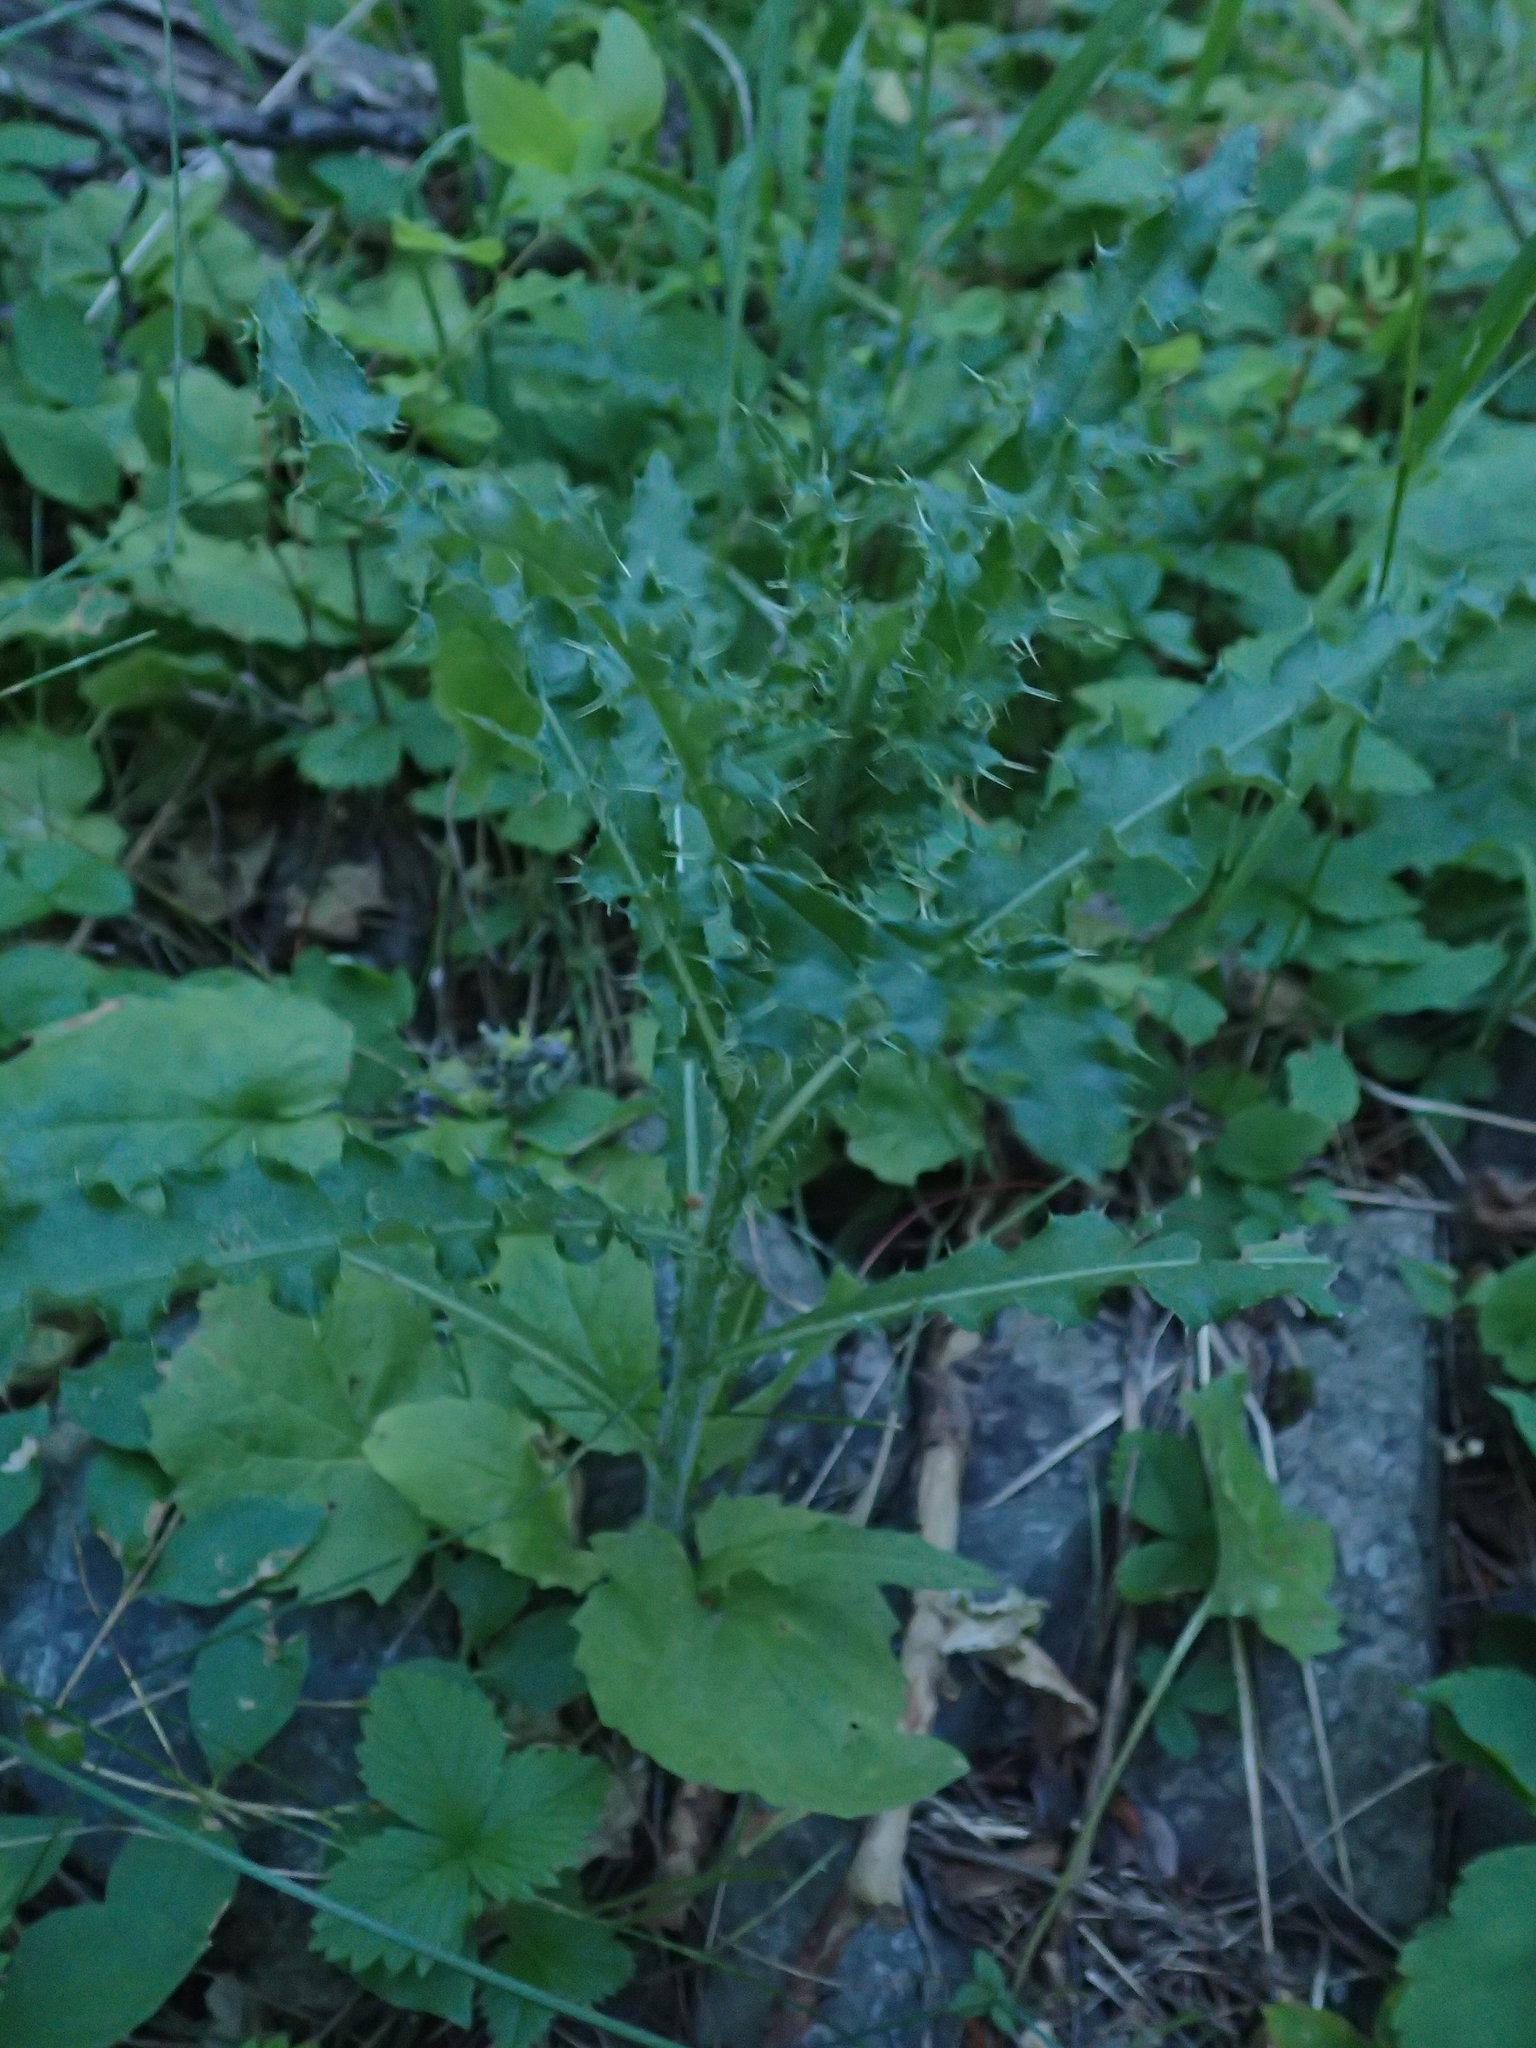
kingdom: Plantae
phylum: Tracheophyta
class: Magnoliopsida
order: Asterales
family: Asteraceae
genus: Cirsium
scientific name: Cirsium arvense
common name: Creeping thistle
